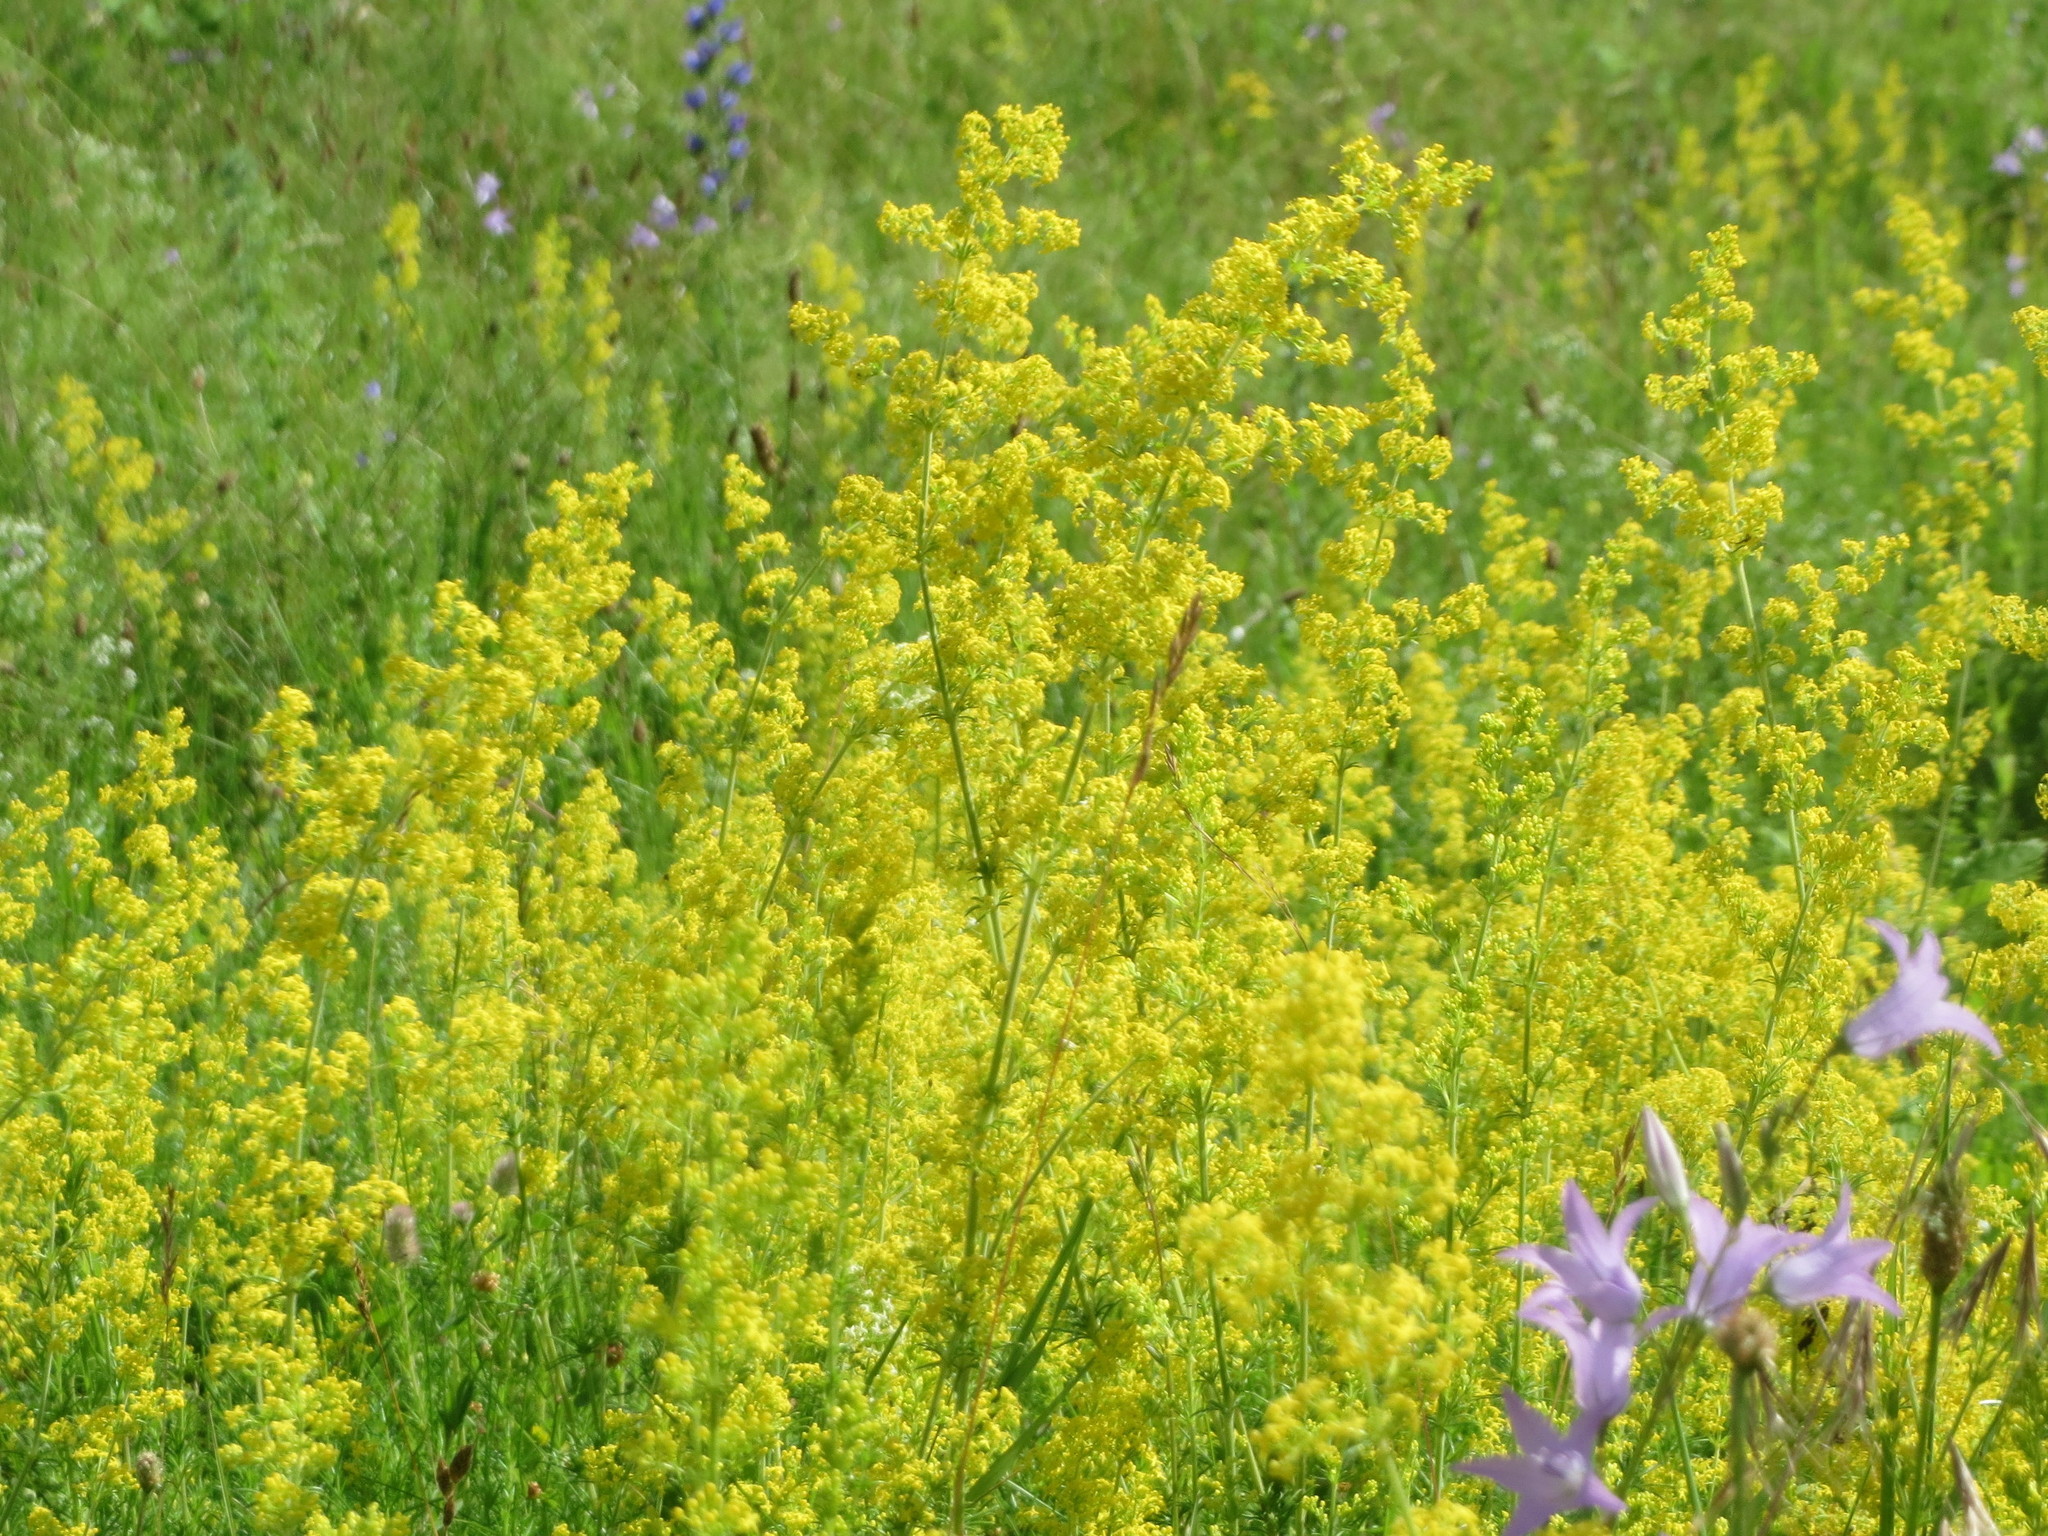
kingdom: Plantae
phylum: Tracheophyta
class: Magnoliopsida
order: Gentianales
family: Rubiaceae
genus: Galium
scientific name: Galium verum
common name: Lady's bedstraw
